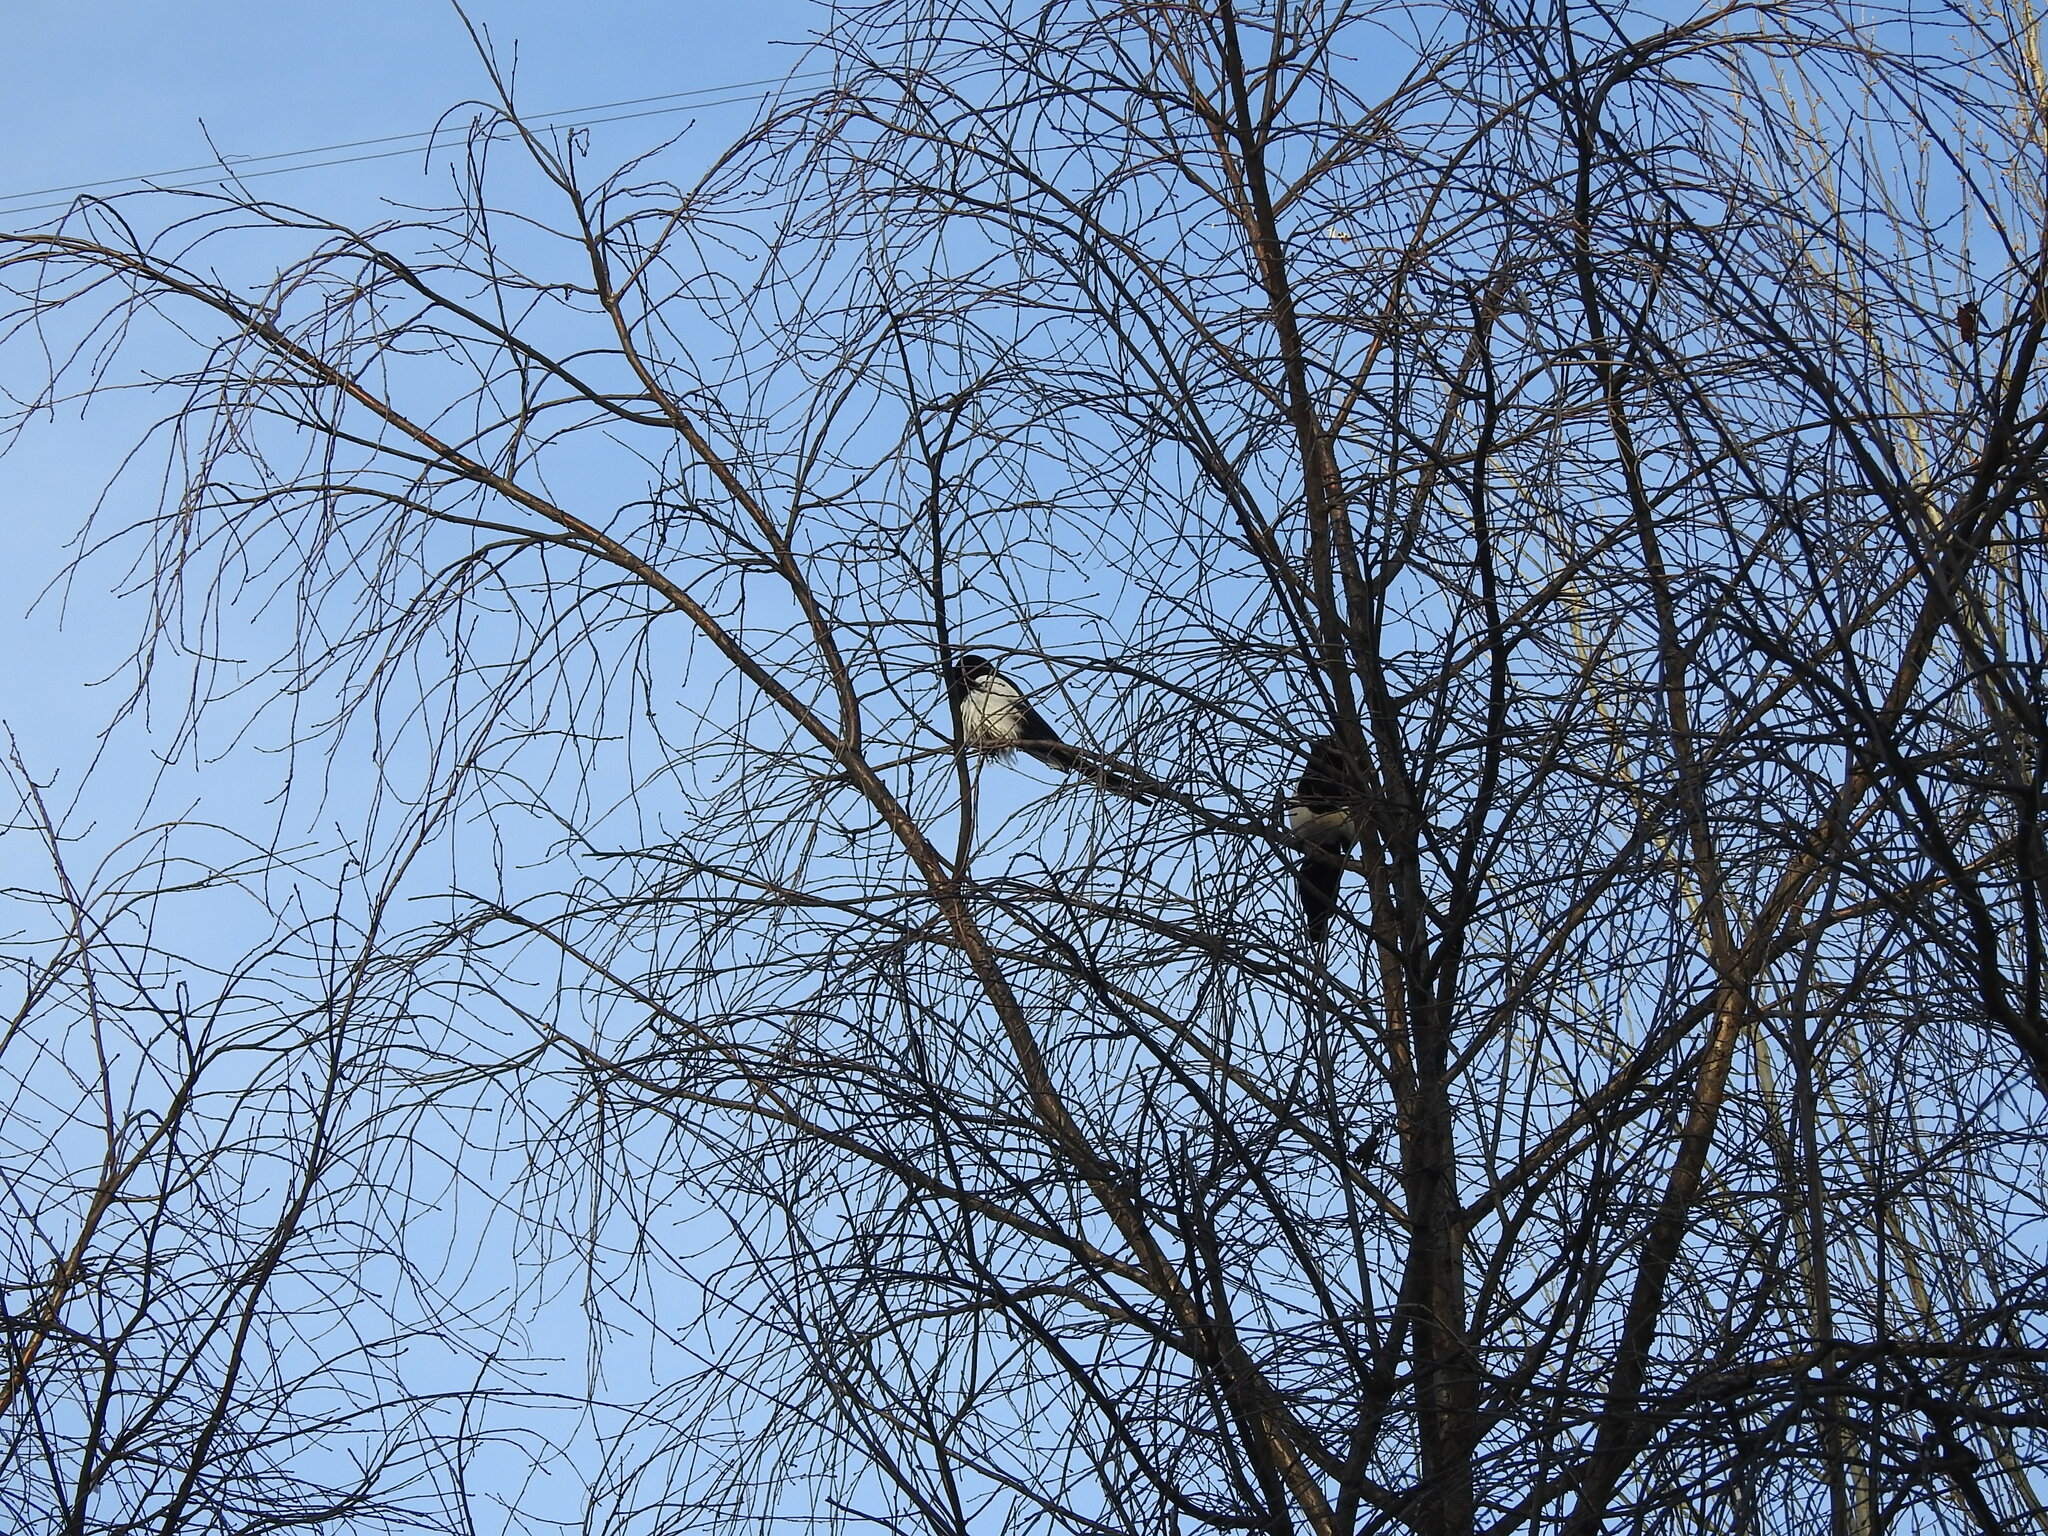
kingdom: Animalia
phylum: Chordata
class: Aves
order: Passeriformes
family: Corvidae
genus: Pica
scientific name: Pica pica
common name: Eurasian magpie
